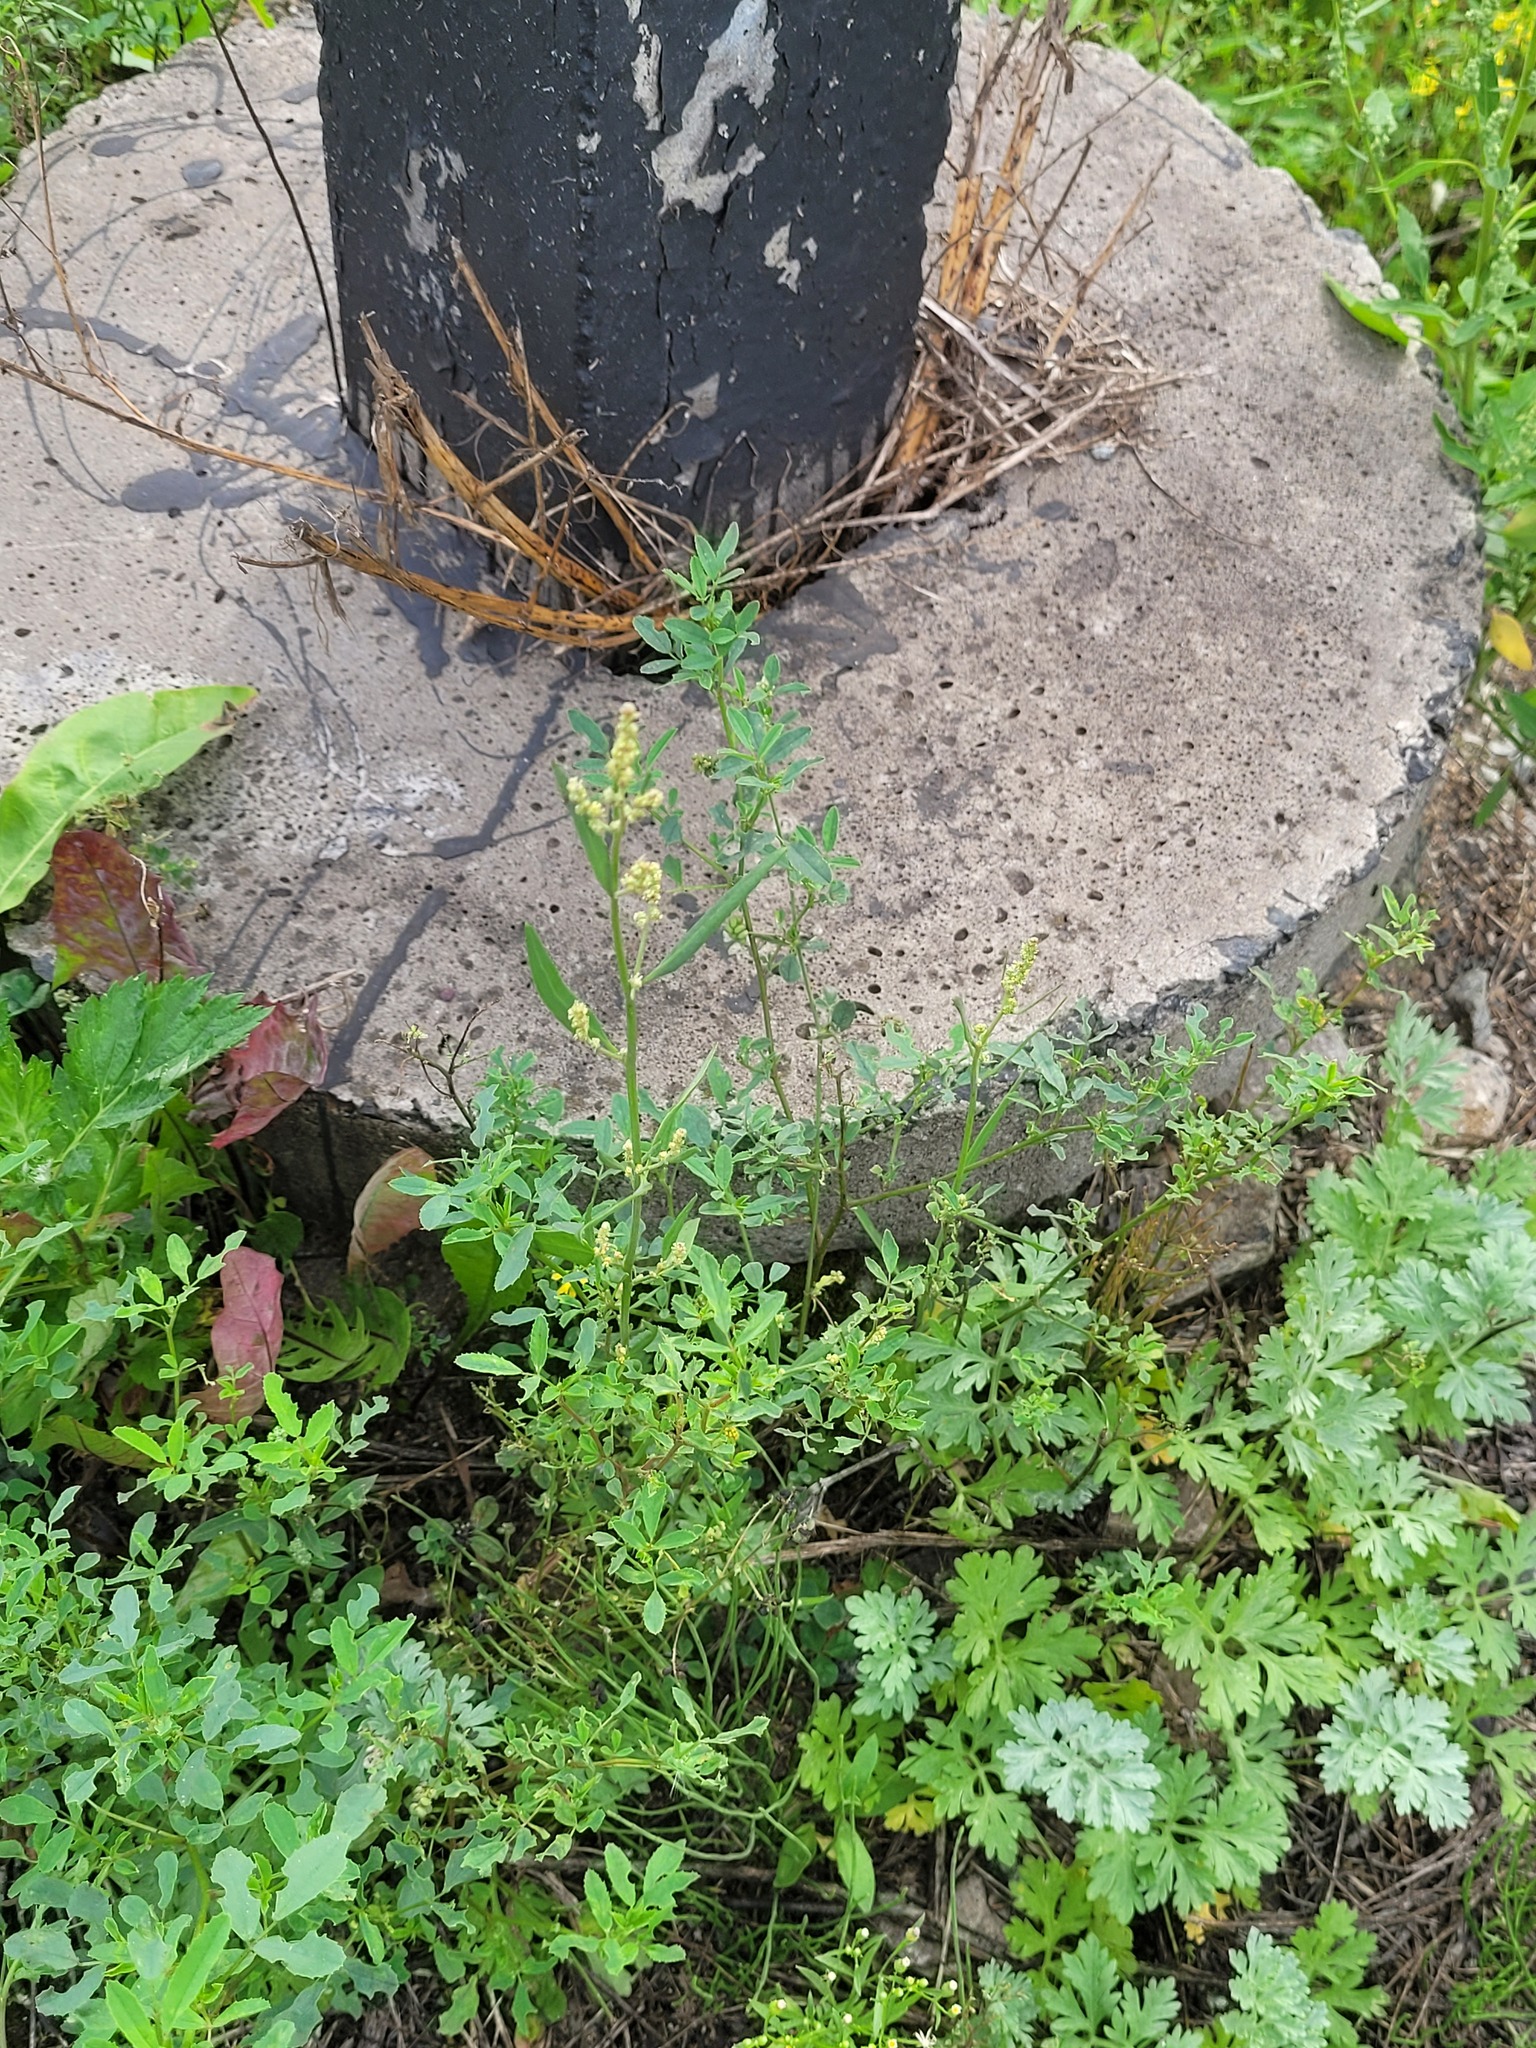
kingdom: Plantae
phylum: Tracheophyta
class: Magnoliopsida
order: Caryophyllales
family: Amaranthaceae
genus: Atriplex
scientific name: Atriplex patula
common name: Common orache
